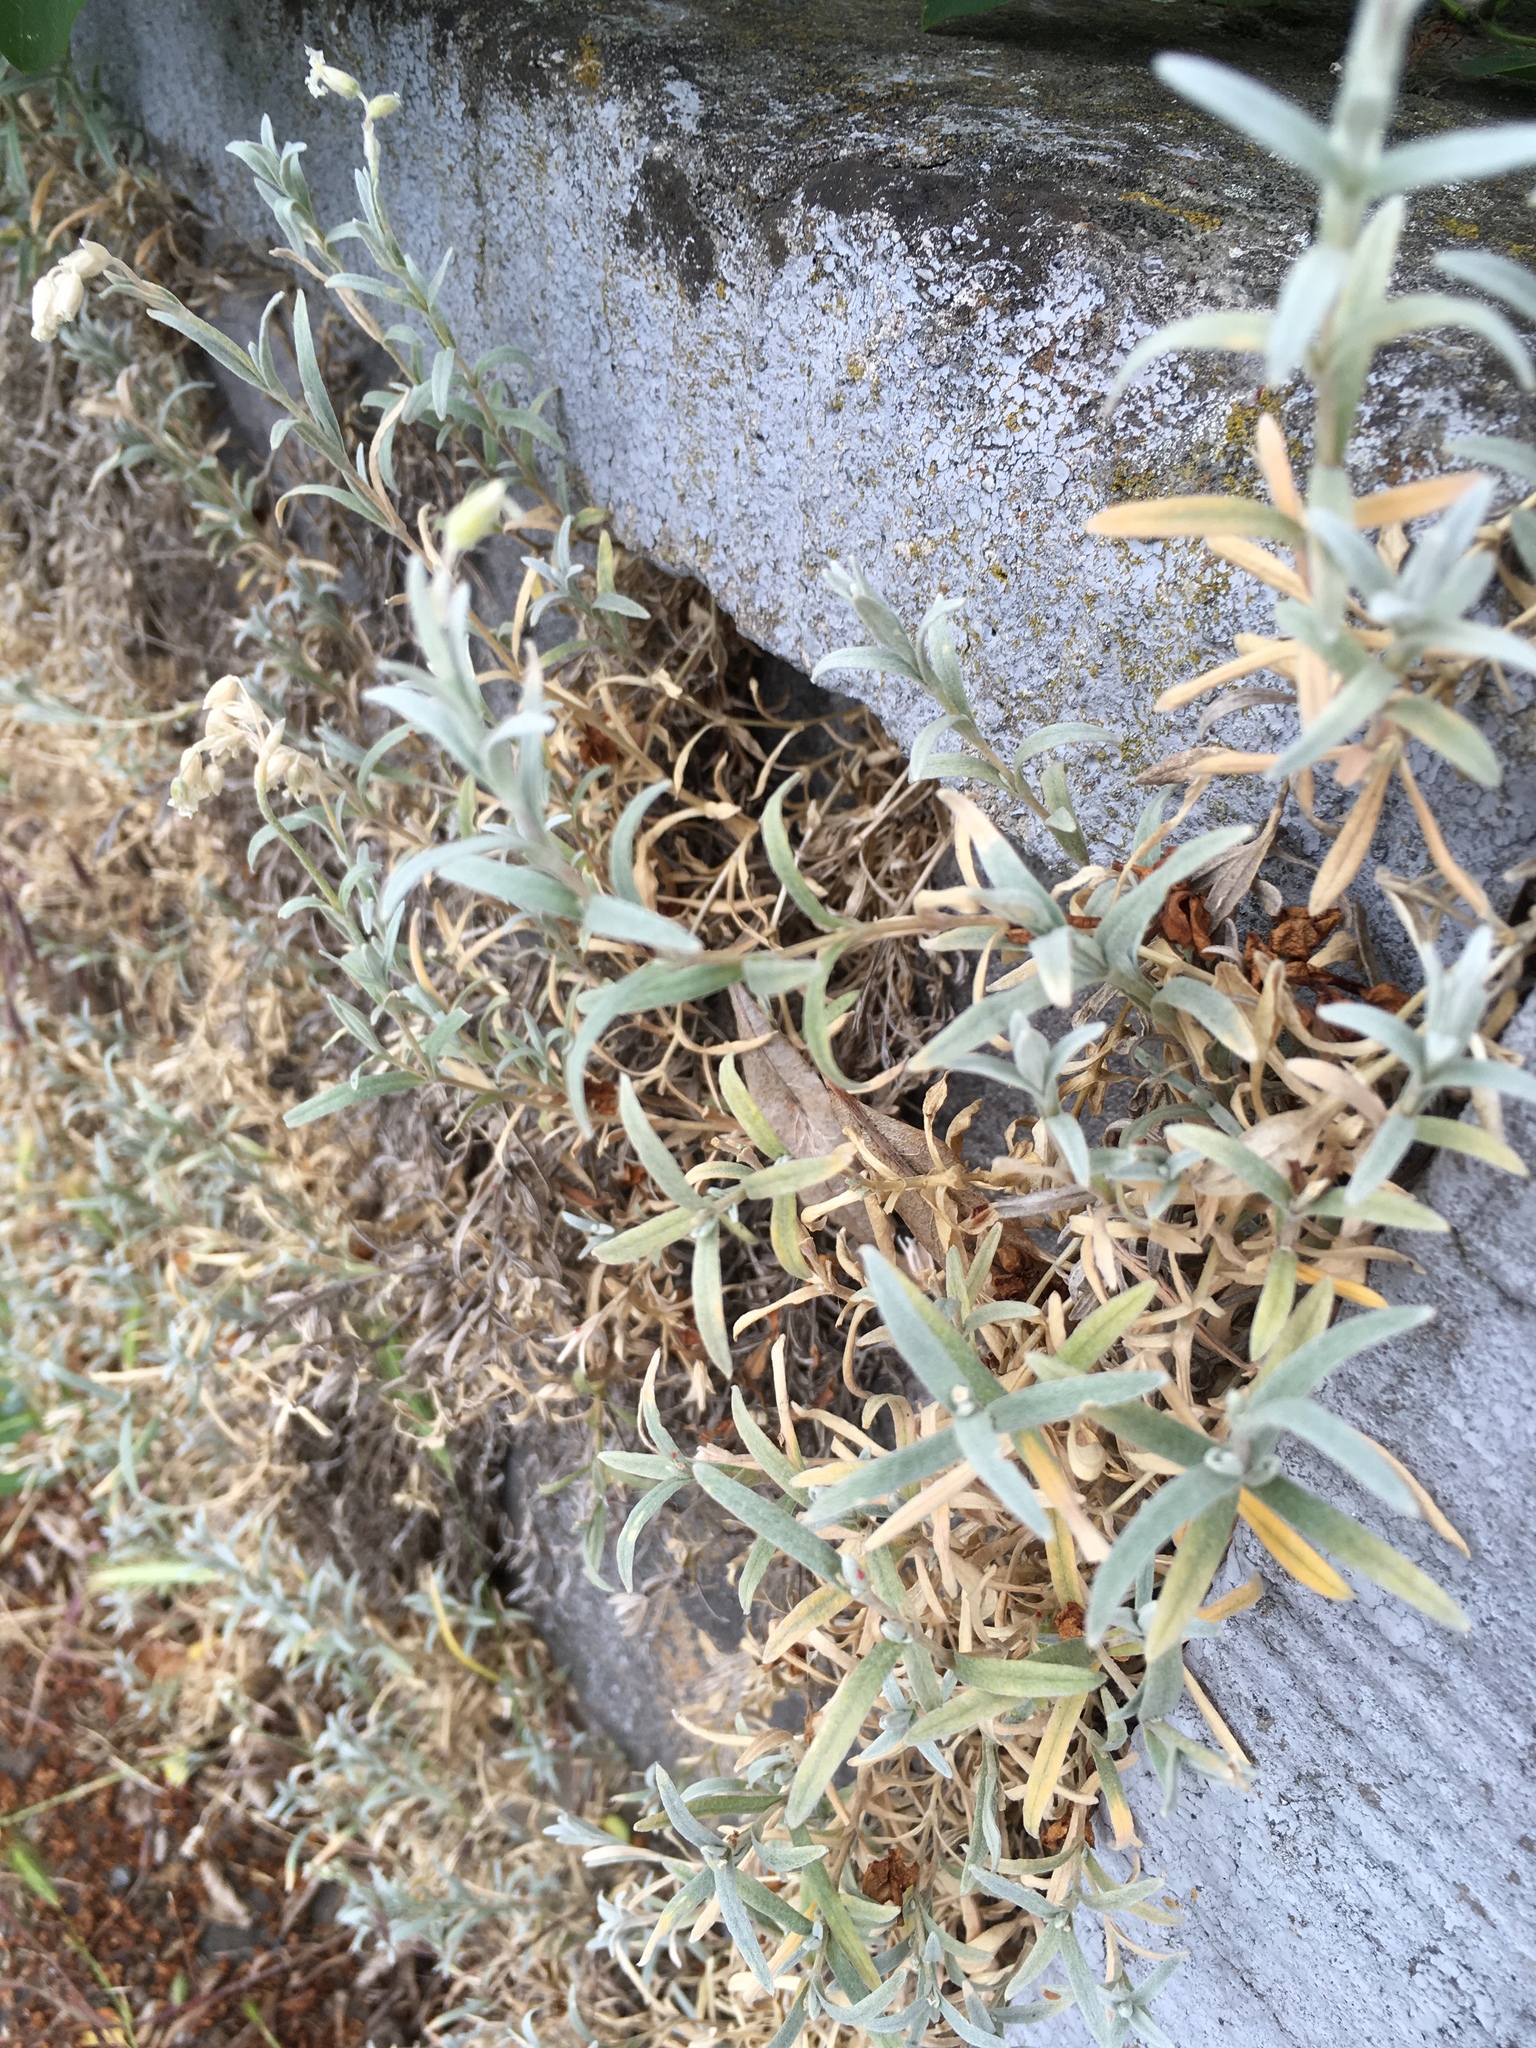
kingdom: Plantae
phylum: Tracheophyta
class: Magnoliopsida
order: Caryophyllales
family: Caryophyllaceae
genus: Cerastium
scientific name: Cerastium tomentosum
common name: Snow-in-summer
